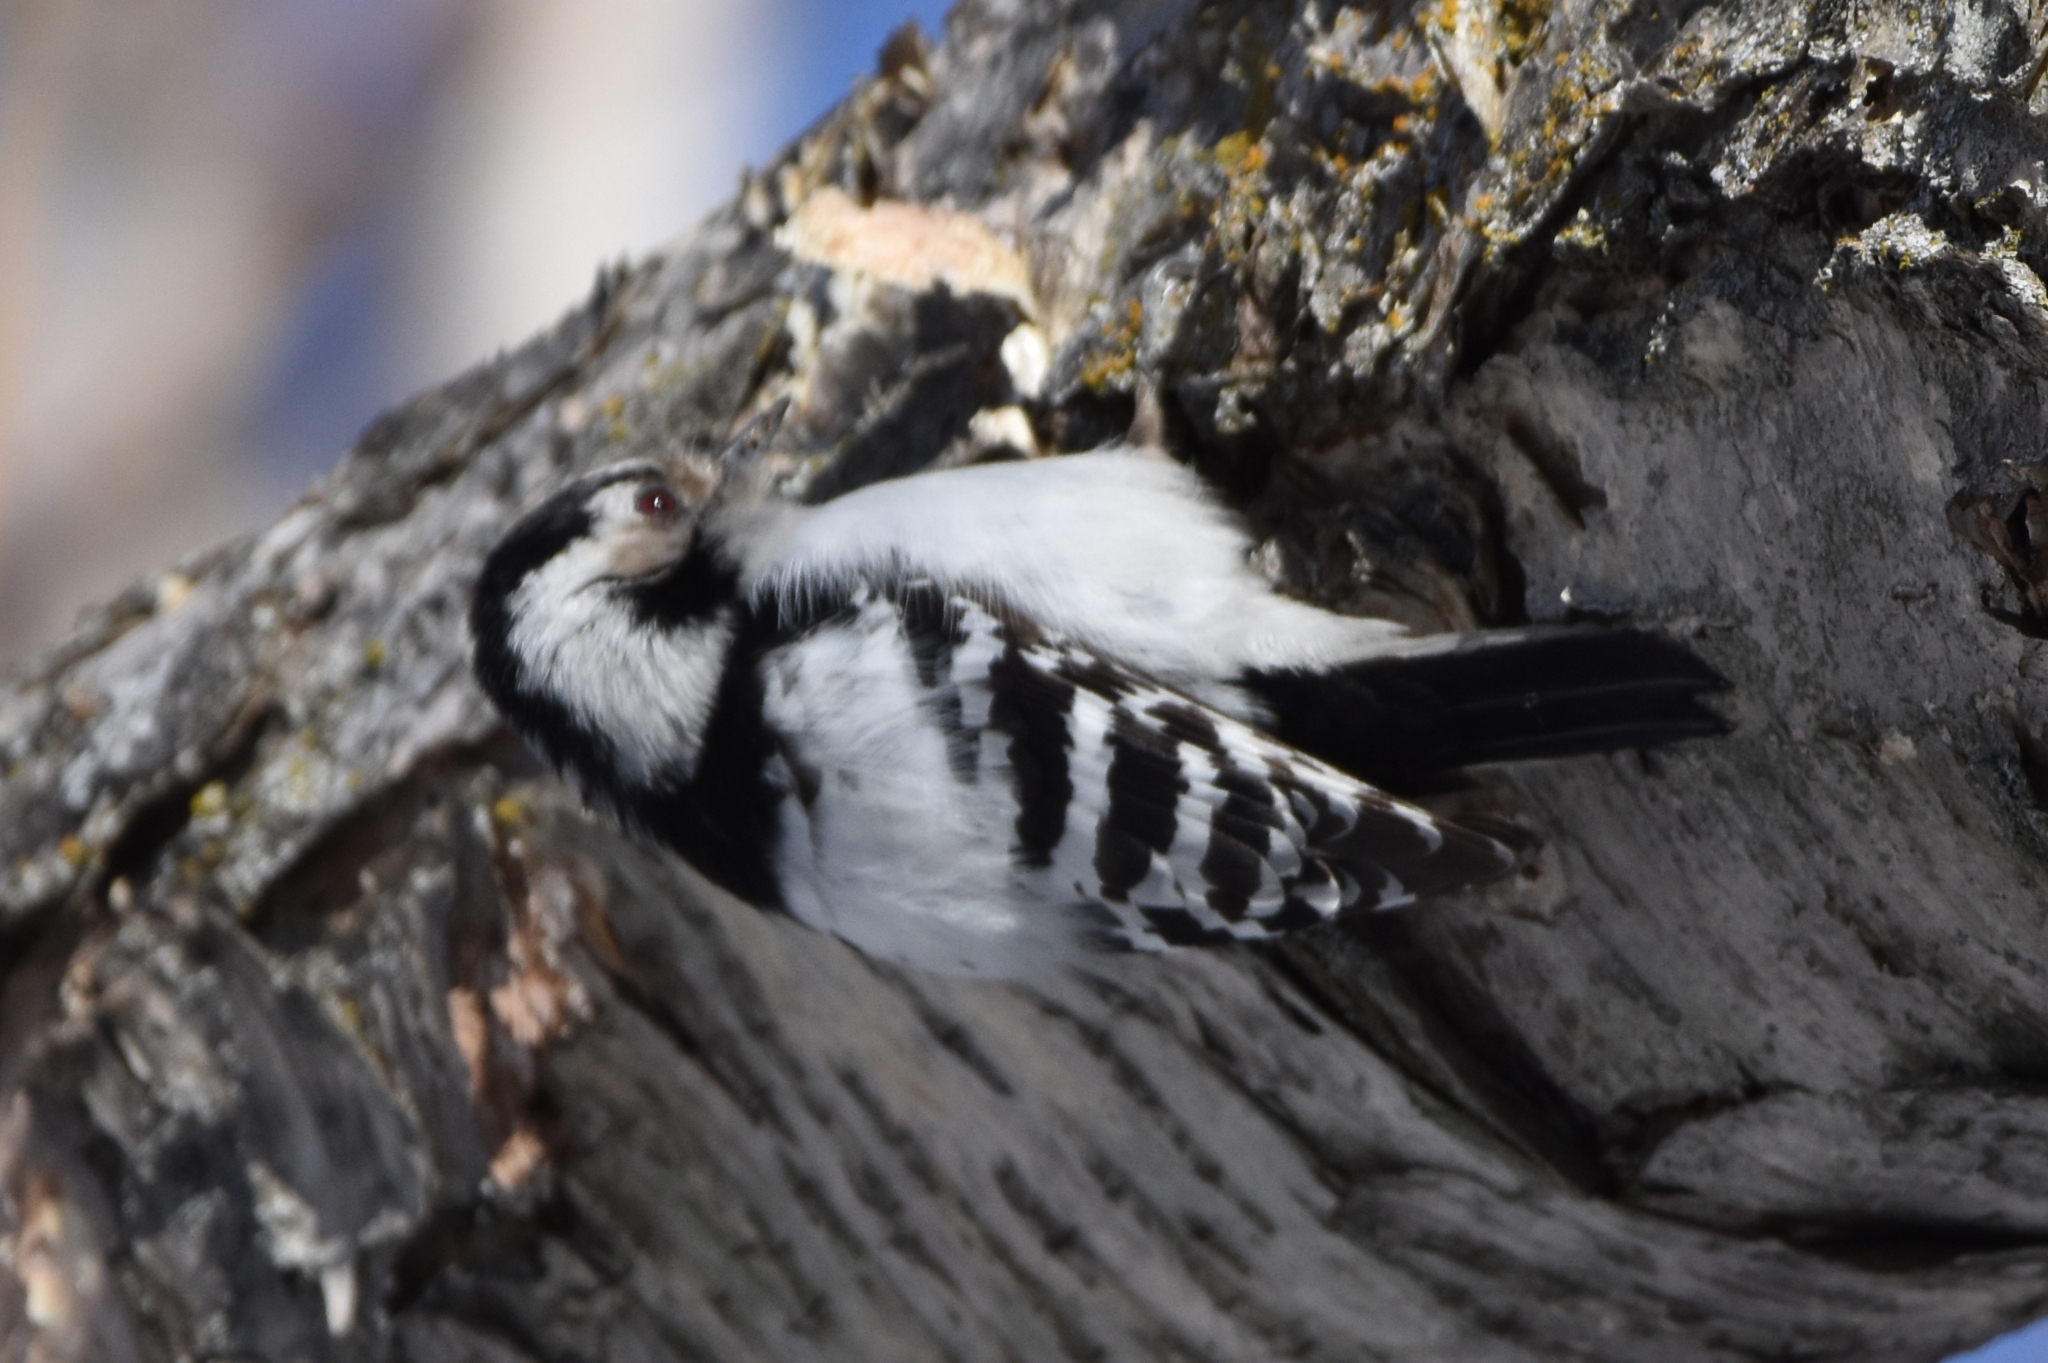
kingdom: Animalia
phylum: Chordata
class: Aves
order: Piciformes
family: Picidae
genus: Dryobates
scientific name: Dryobates minor
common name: Lesser spotted woodpecker
